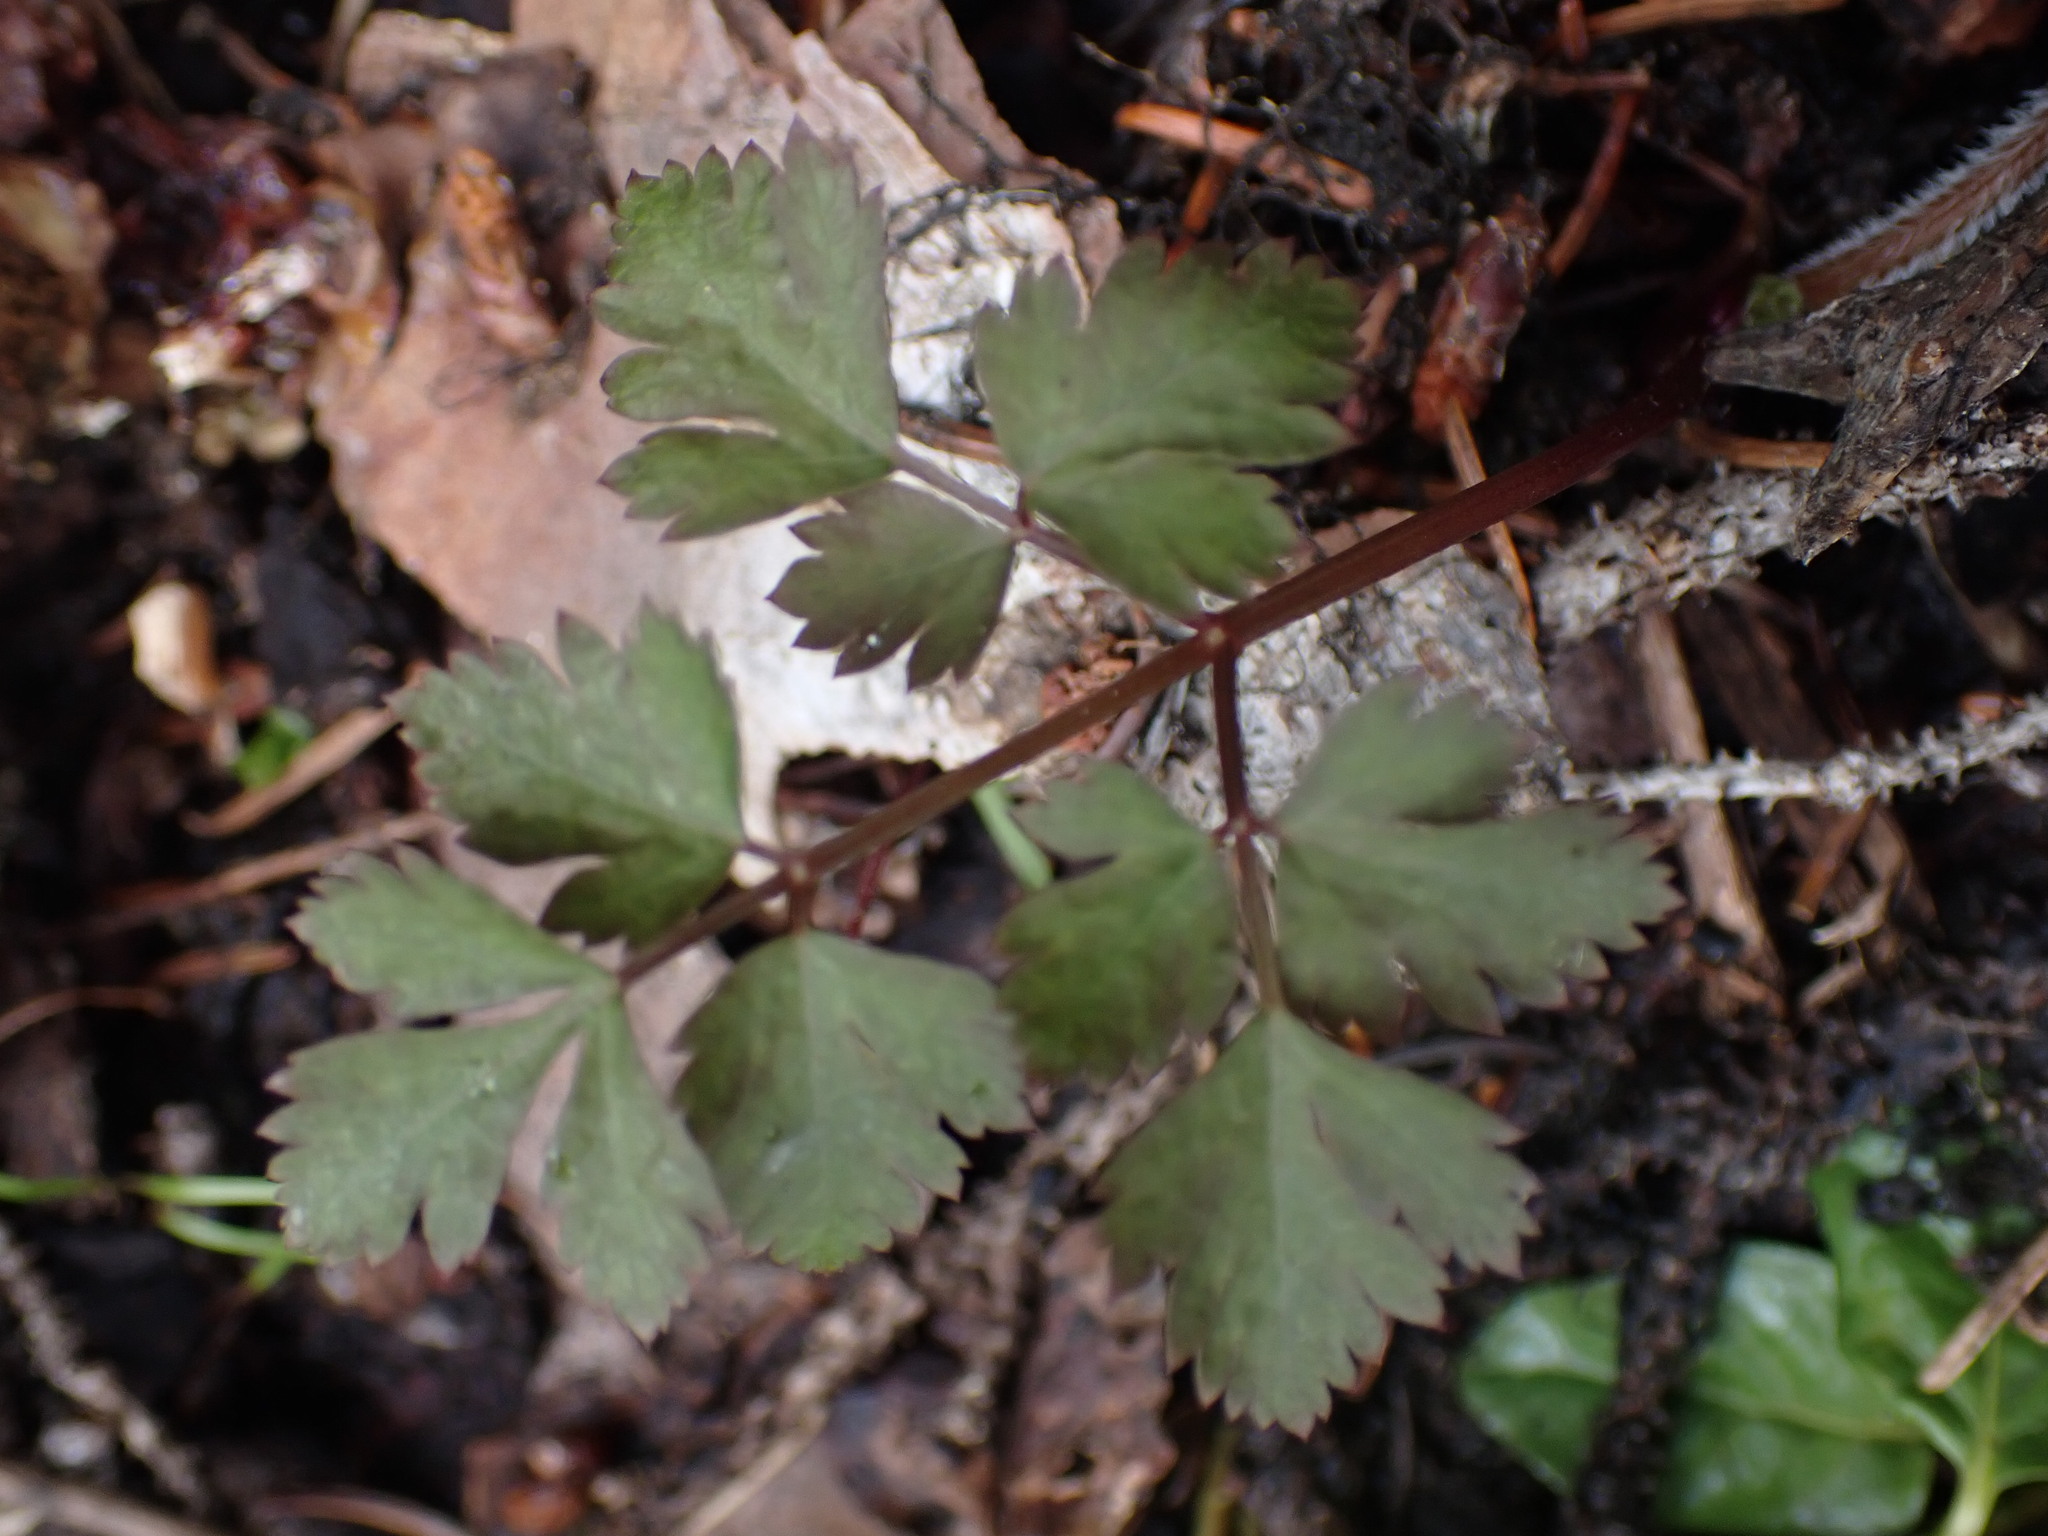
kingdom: Plantae
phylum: Tracheophyta
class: Magnoliopsida
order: Apiales
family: Apiaceae
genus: Osmorhiza
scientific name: Osmorhiza berteroi
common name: Mountain sweet cicely
